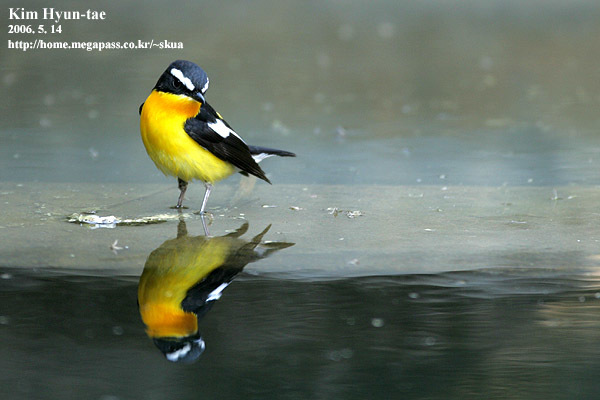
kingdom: Animalia
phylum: Chordata
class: Aves
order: Passeriformes
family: Muscicapidae
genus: Ficedula
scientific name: Ficedula zanthopygia
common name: Yellow-rumped flycatcher
